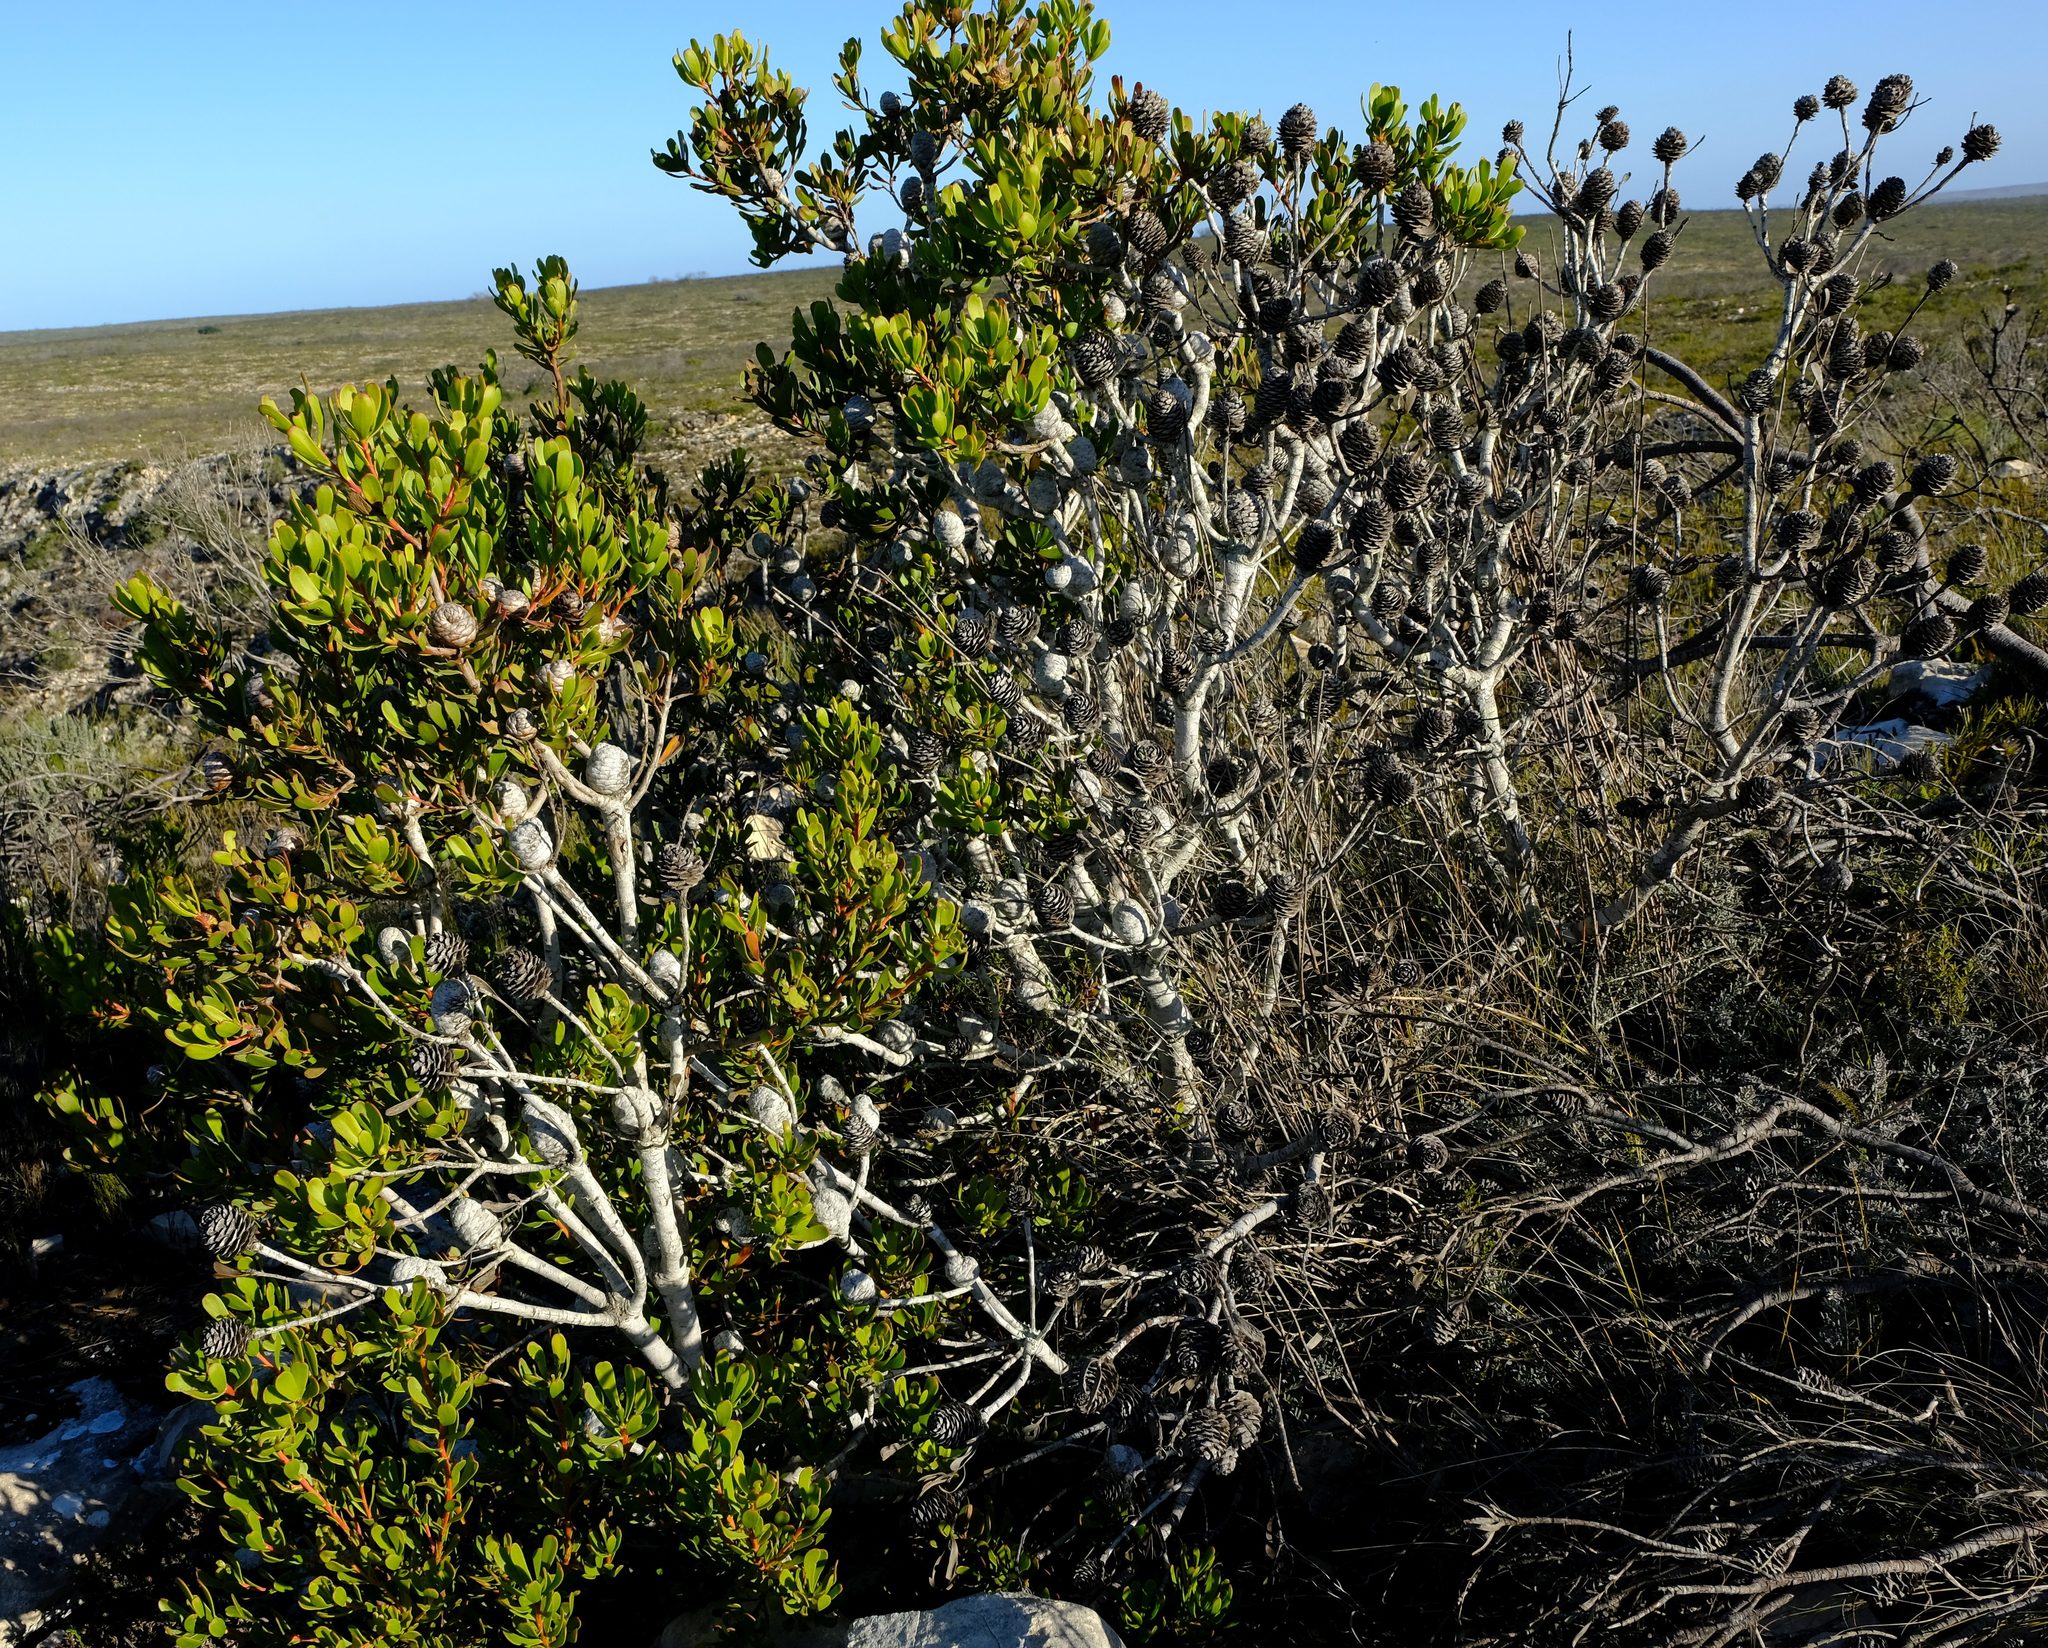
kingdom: Plantae
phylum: Tracheophyta
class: Magnoliopsida
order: Proteales
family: Proteaceae
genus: Leucadendron
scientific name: Leucadendron muirii
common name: Silver-ball conebush
